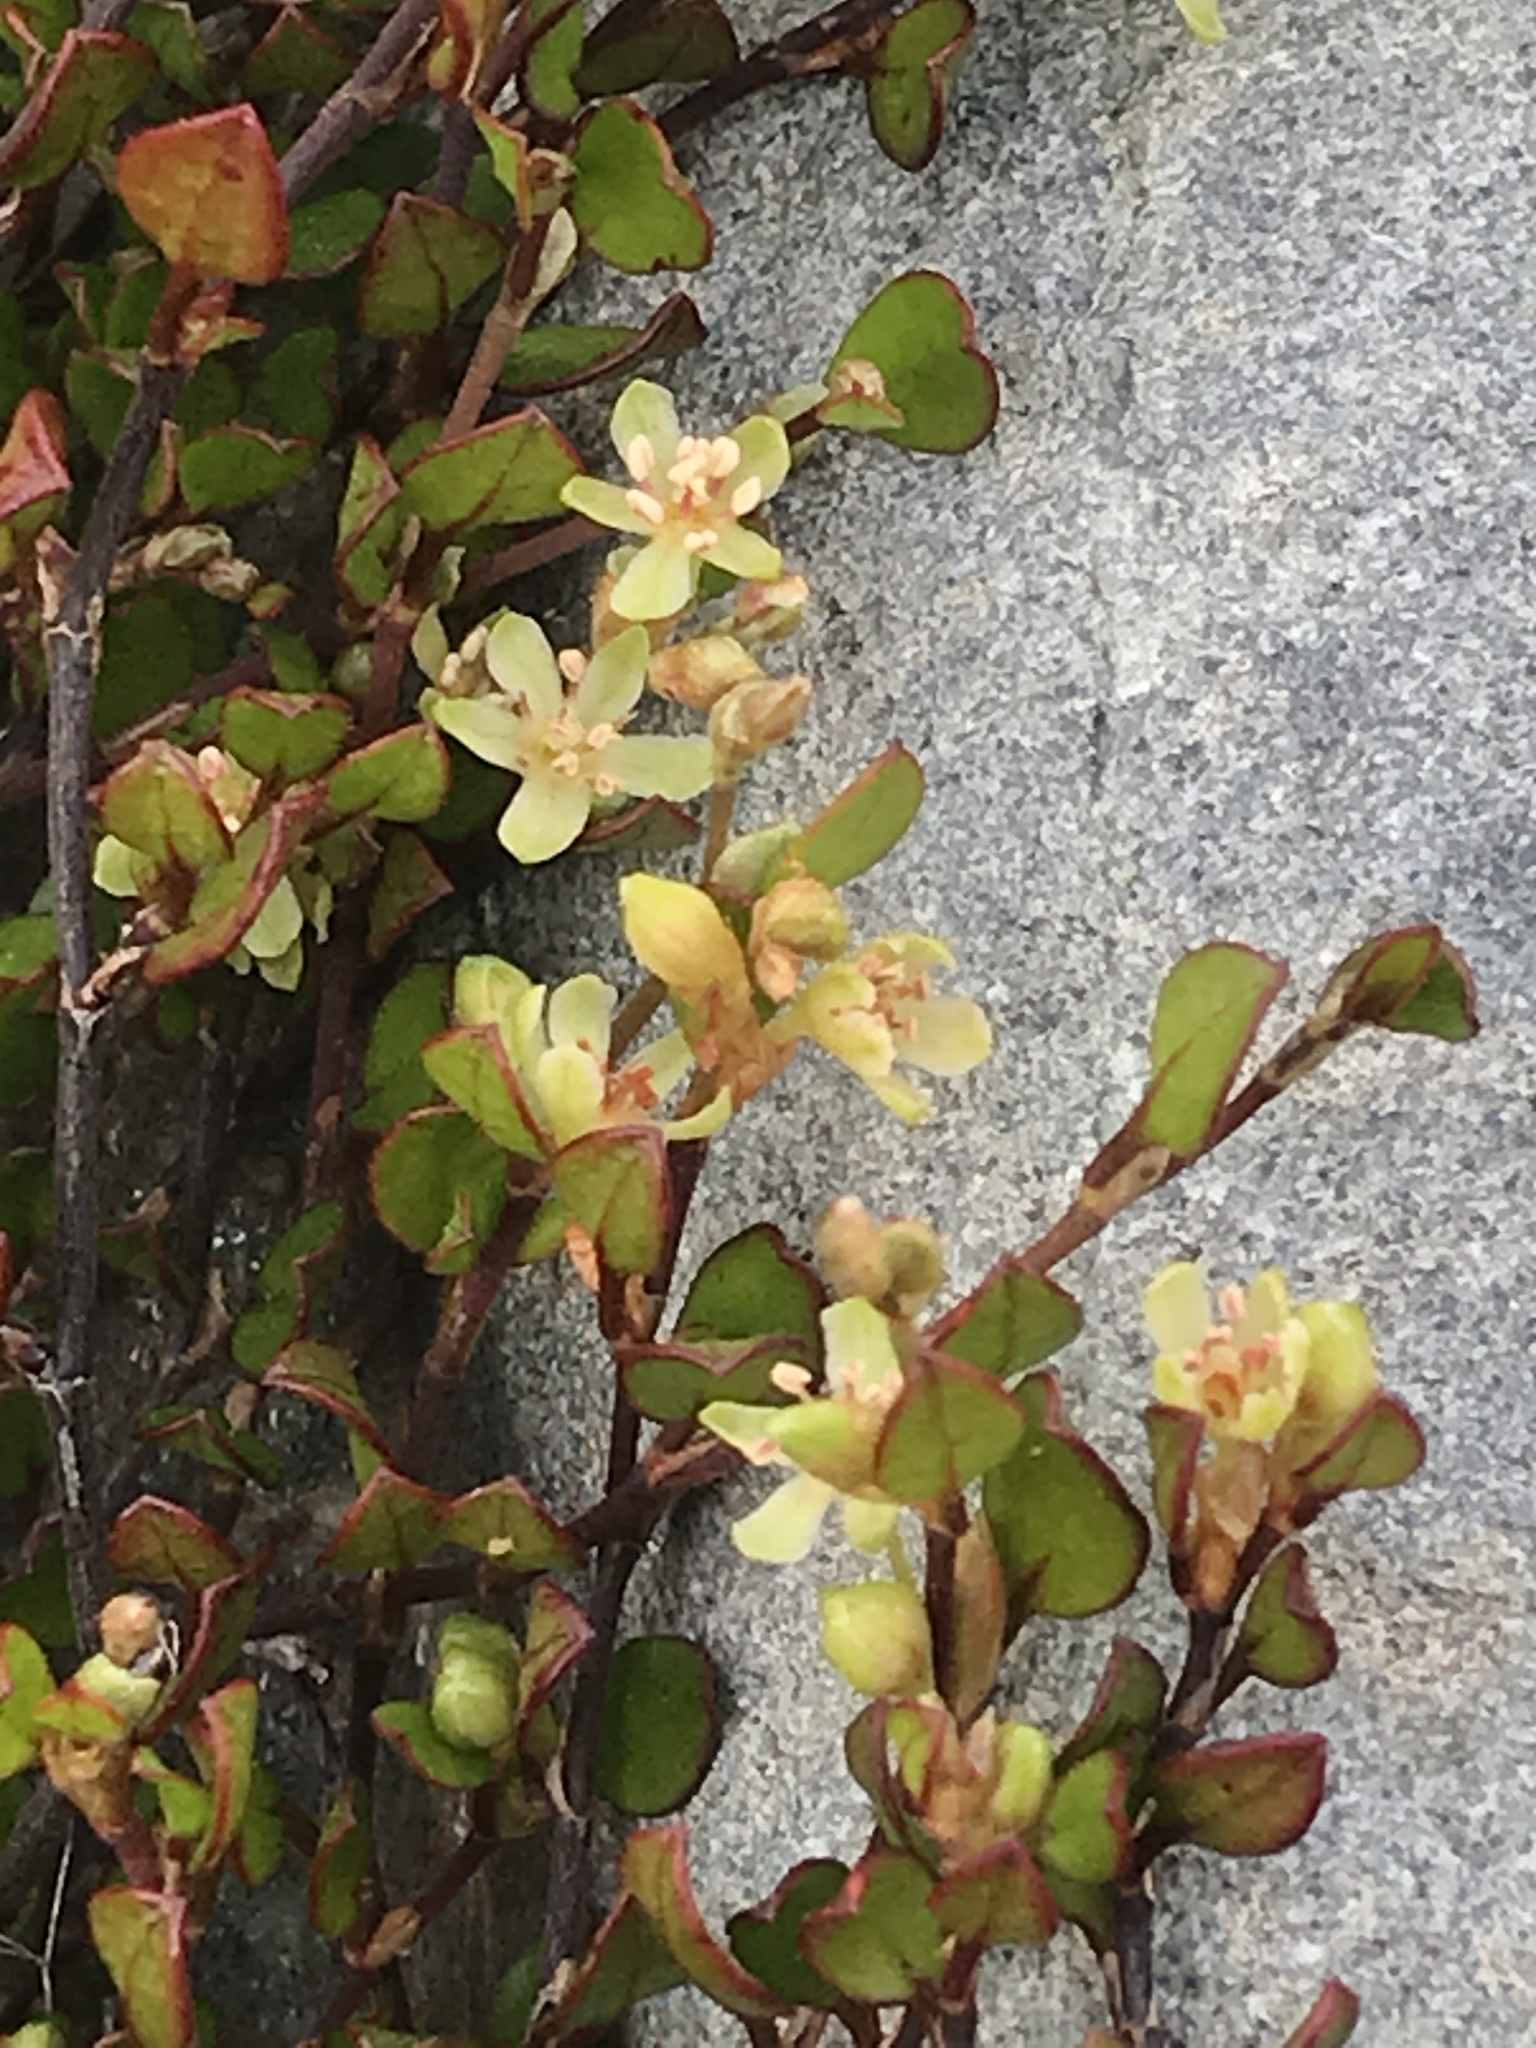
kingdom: Plantae
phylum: Tracheophyta
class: Magnoliopsida
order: Caryophyllales
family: Polygonaceae
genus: Muehlenbeckia
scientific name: Muehlenbeckia axillaris
